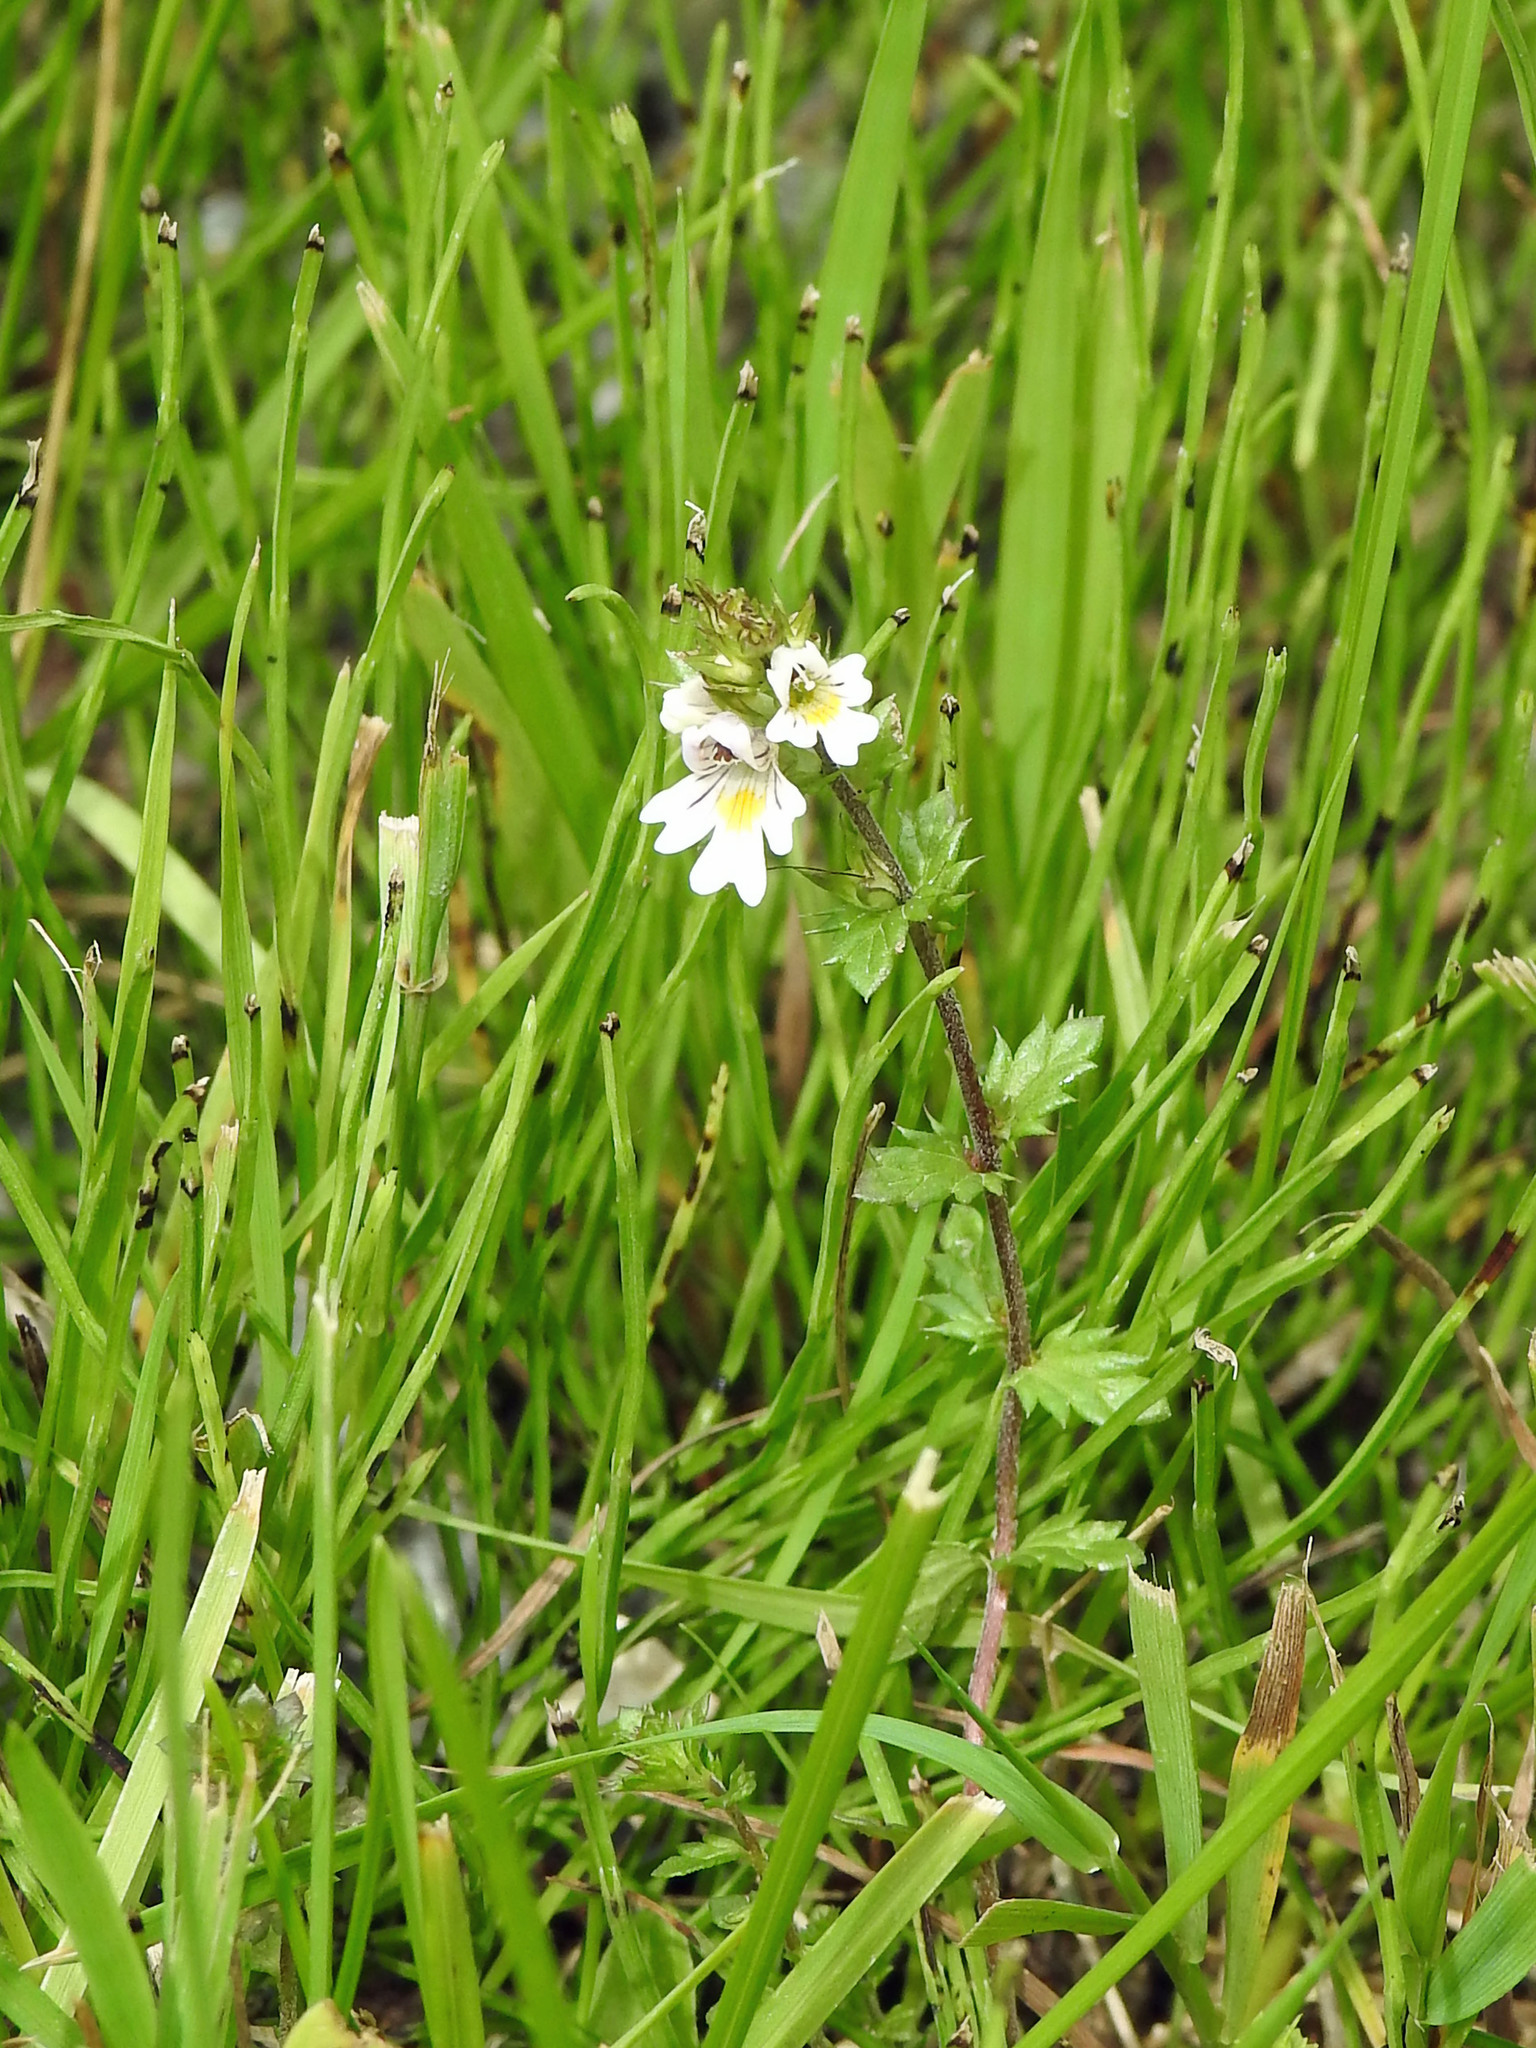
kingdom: Plantae
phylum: Tracheophyta
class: Magnoliopsida
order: Lamiales
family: Orobanchaceae
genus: Euphrasia
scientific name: Euphrasia nemorosa
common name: Common eyebright
